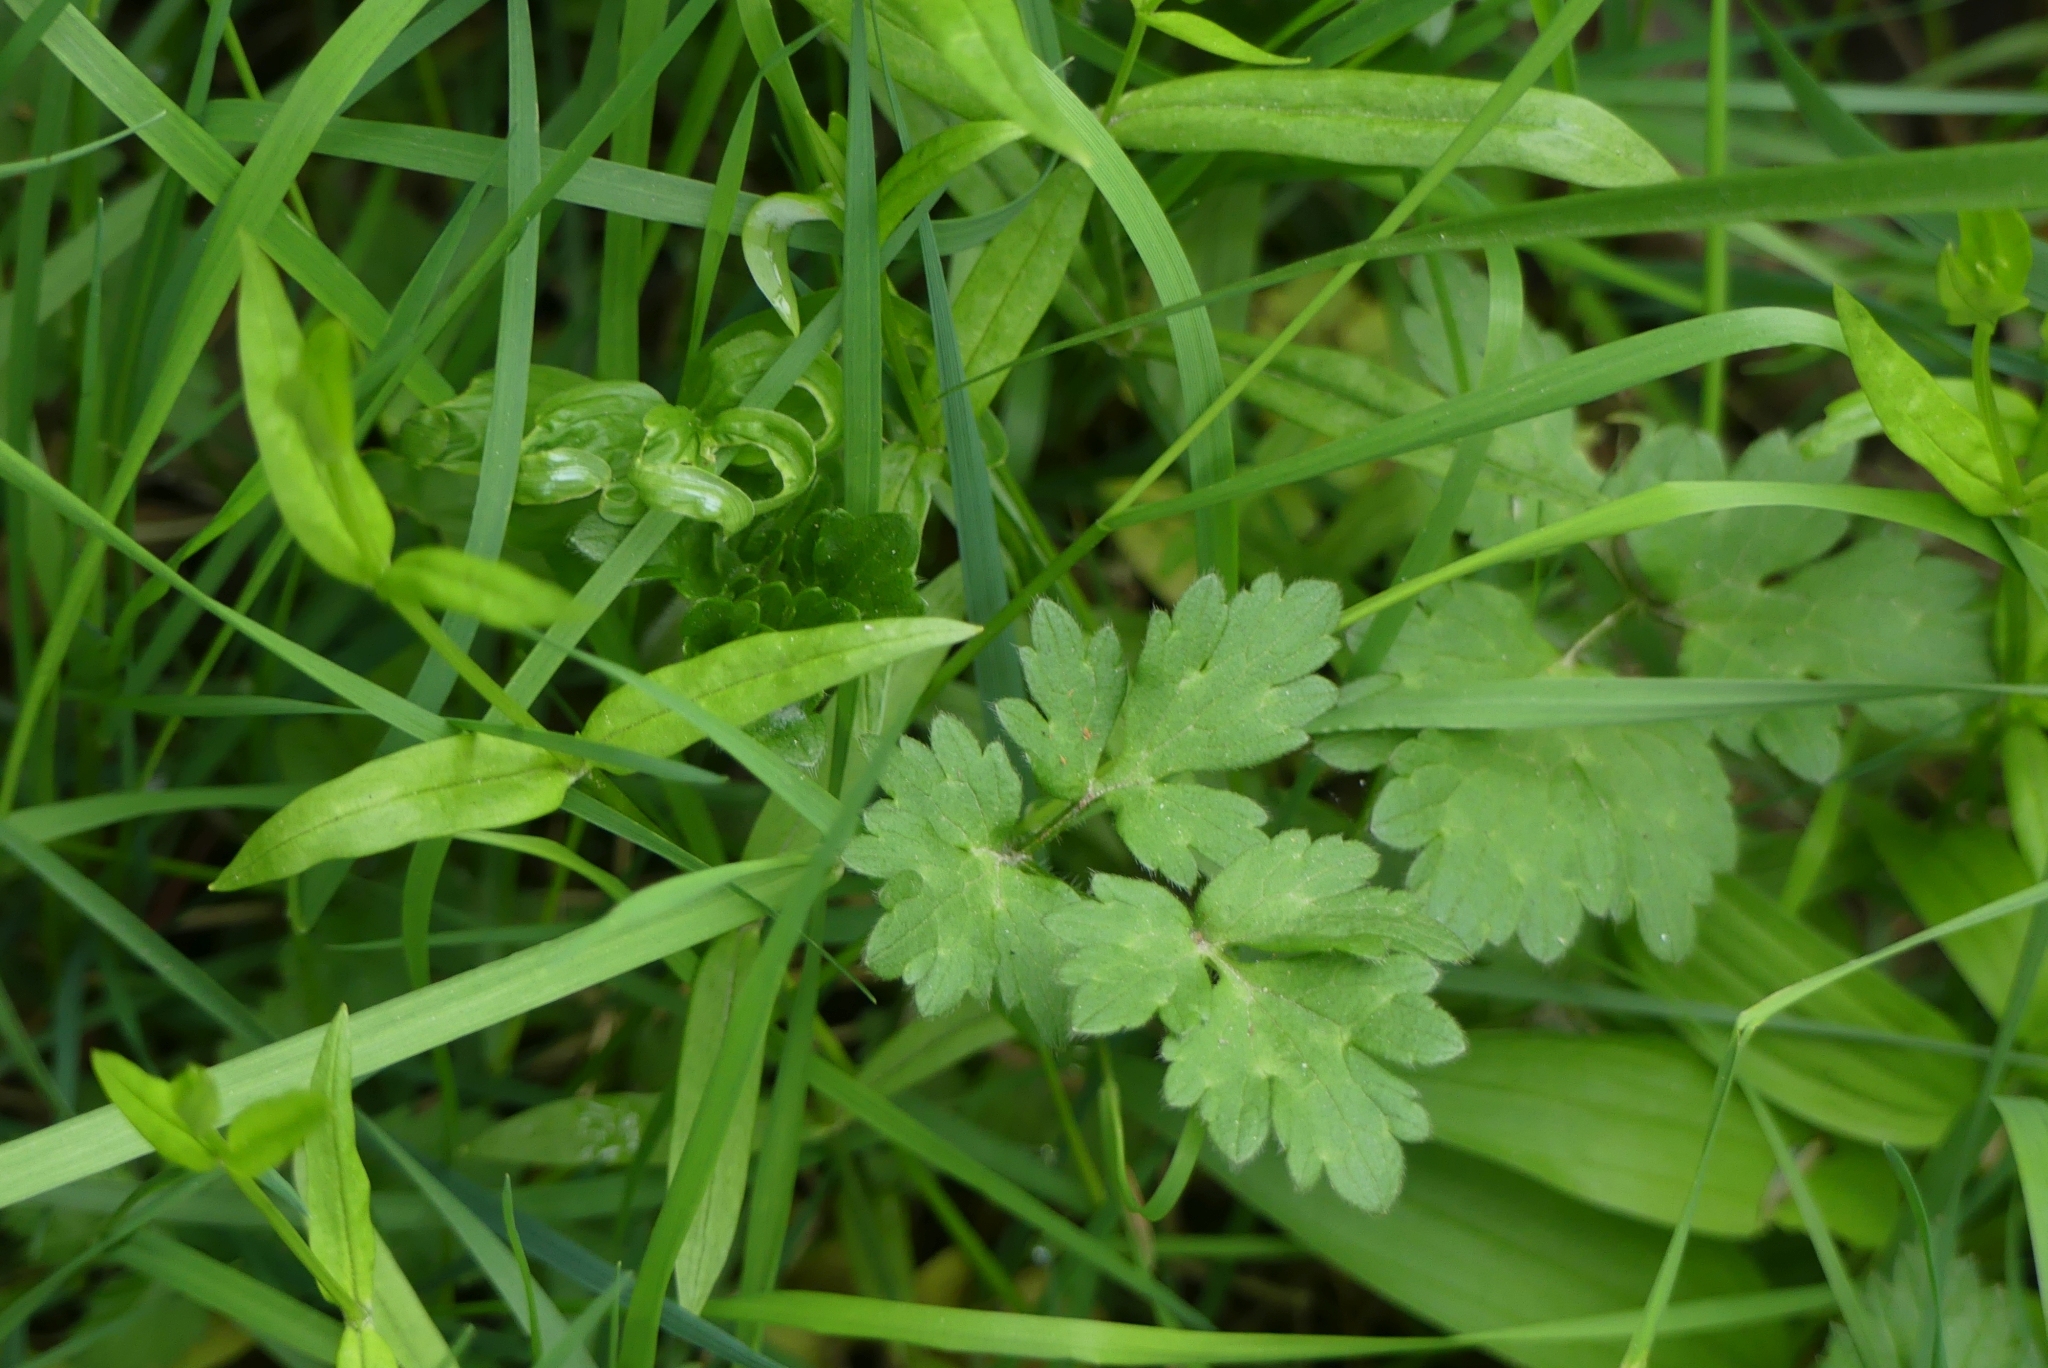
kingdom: Plantae
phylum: Tracheophyta
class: Magnoliopsida
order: Ranunculales
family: Ranunculaceae
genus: Ranunculus
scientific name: Ranunculus repens
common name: Creeping buttercup
